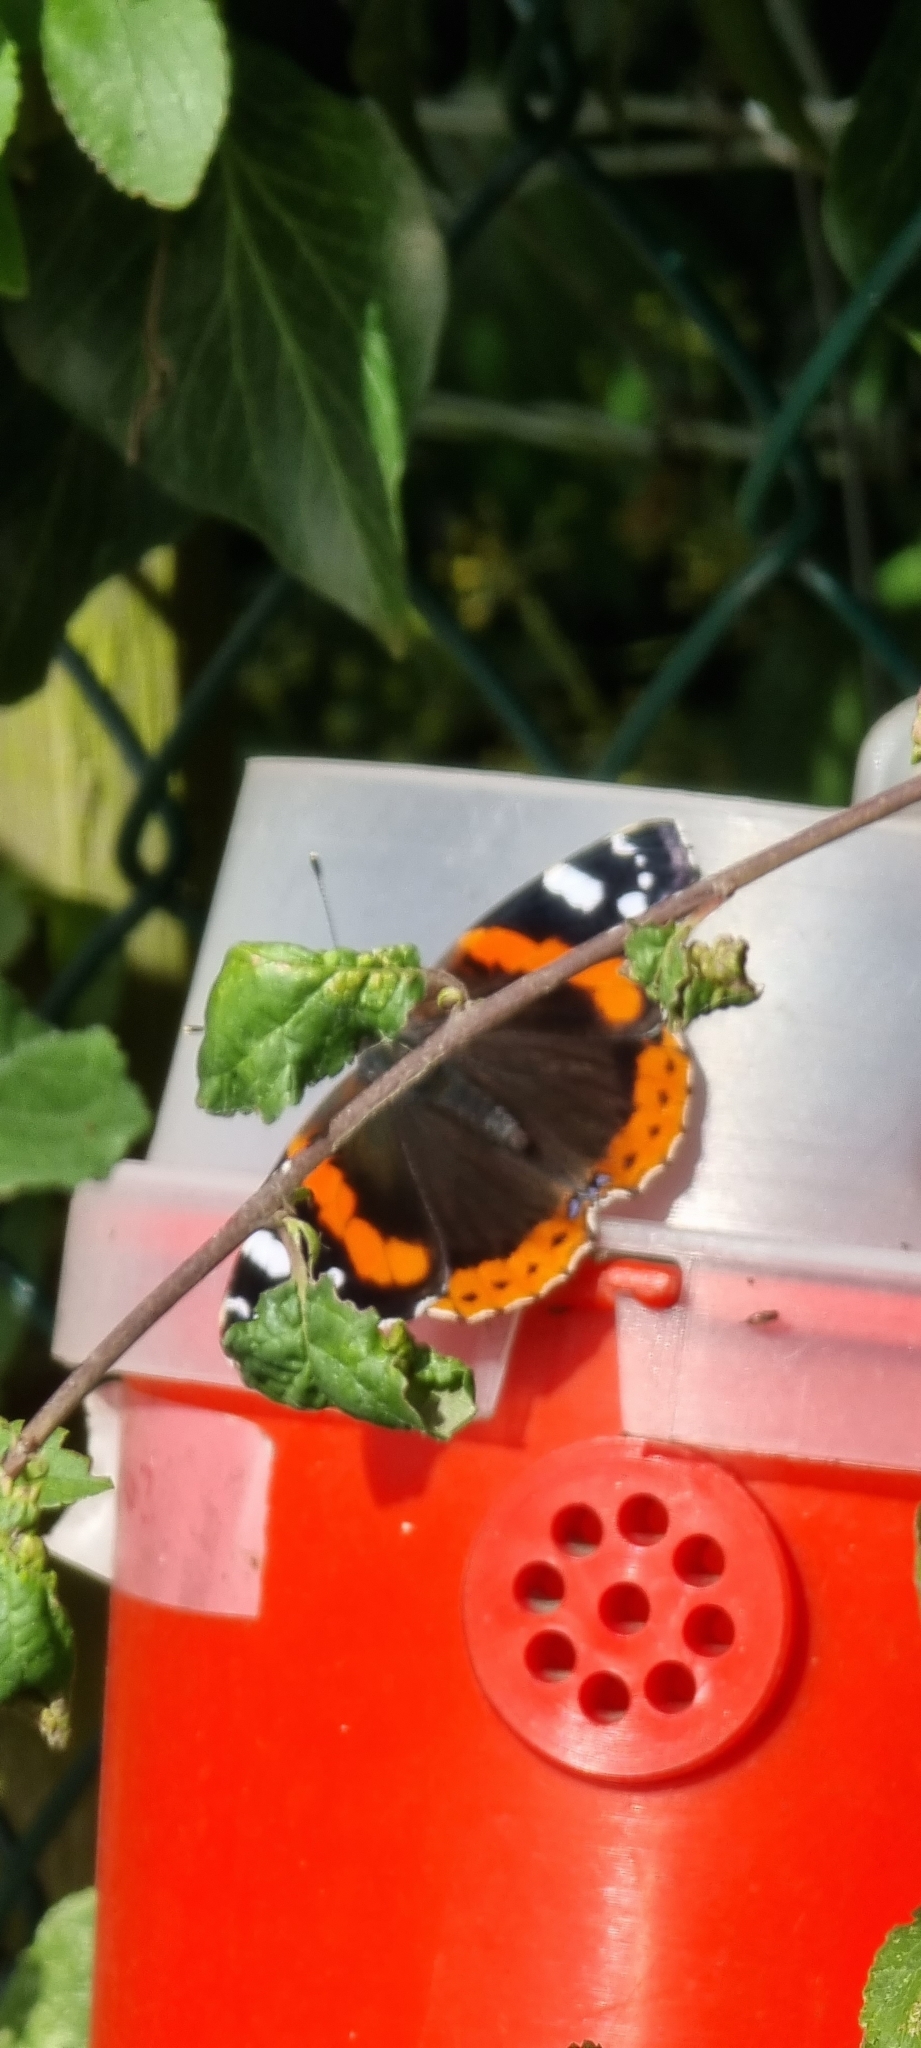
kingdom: Animalia
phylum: Arthropoda
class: Insecta
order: Lepidoptera
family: Nymphalidae
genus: Vanessa
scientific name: Vanessa atalanta
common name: Red admiral
